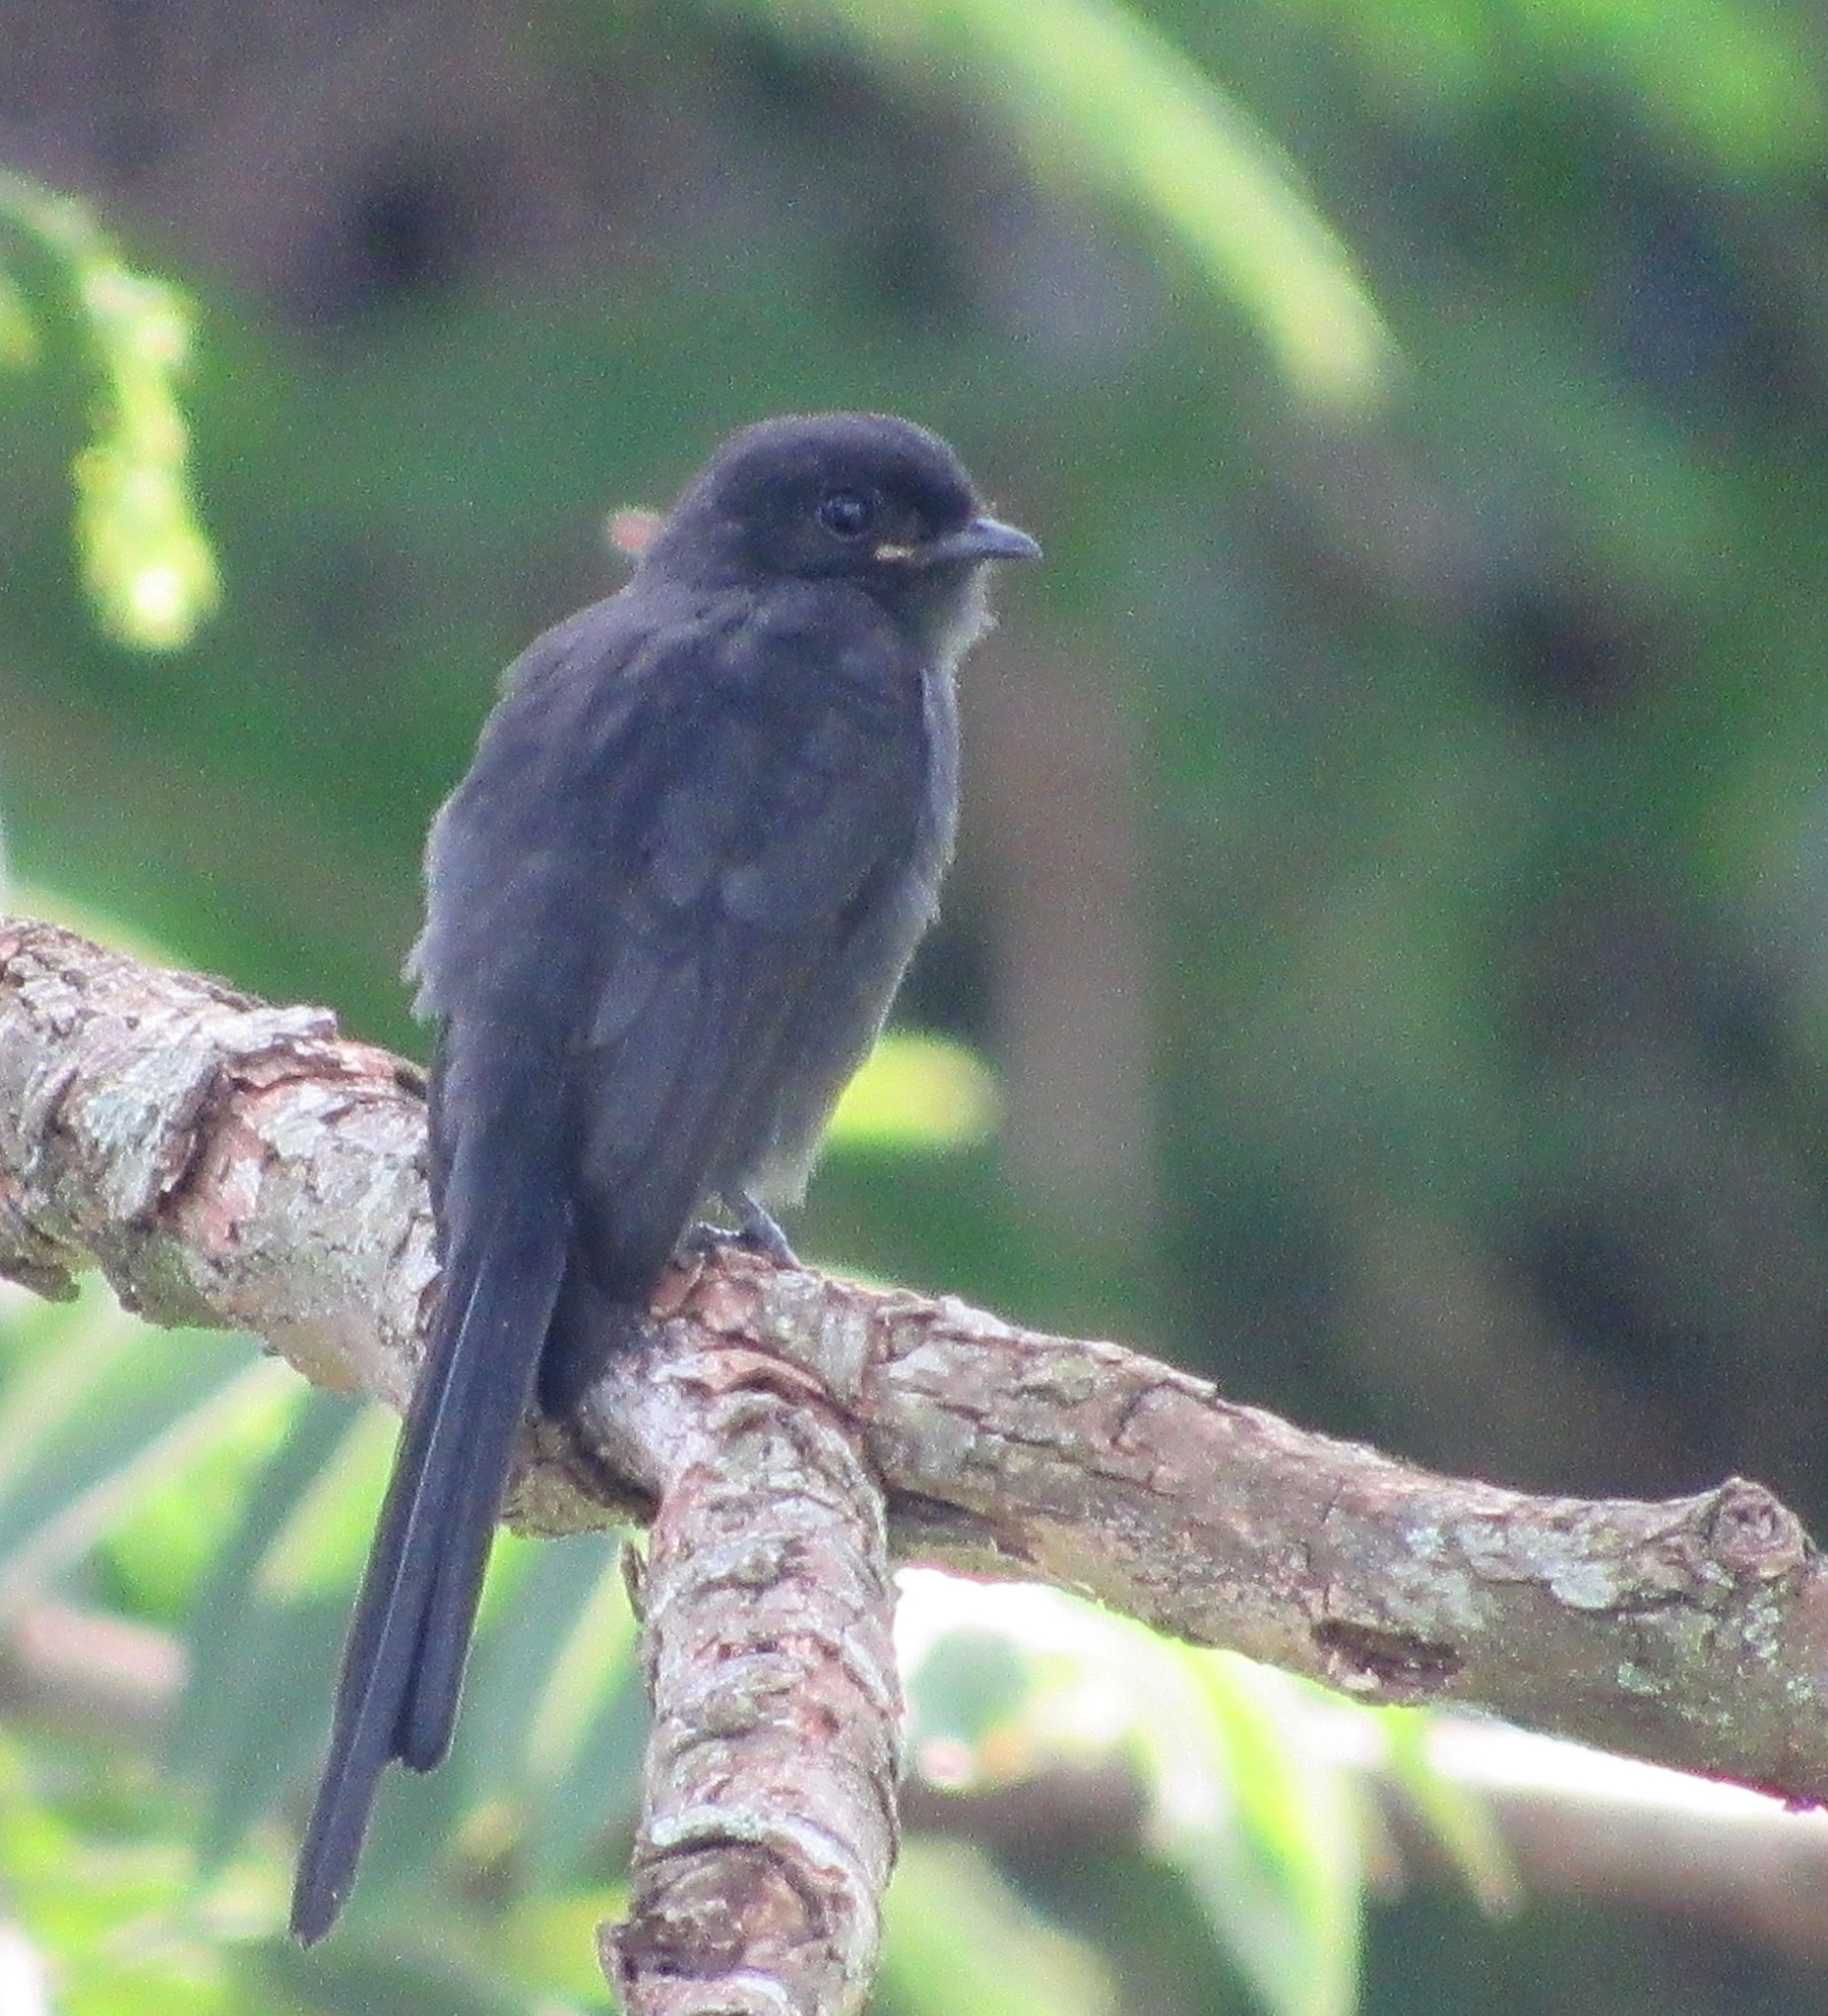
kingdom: Animalia
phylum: Chordata
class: Aves
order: Passeriformes
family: Tyrannidae
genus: Colonia
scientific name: Colonia colonus
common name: Long-tailed tyrant
